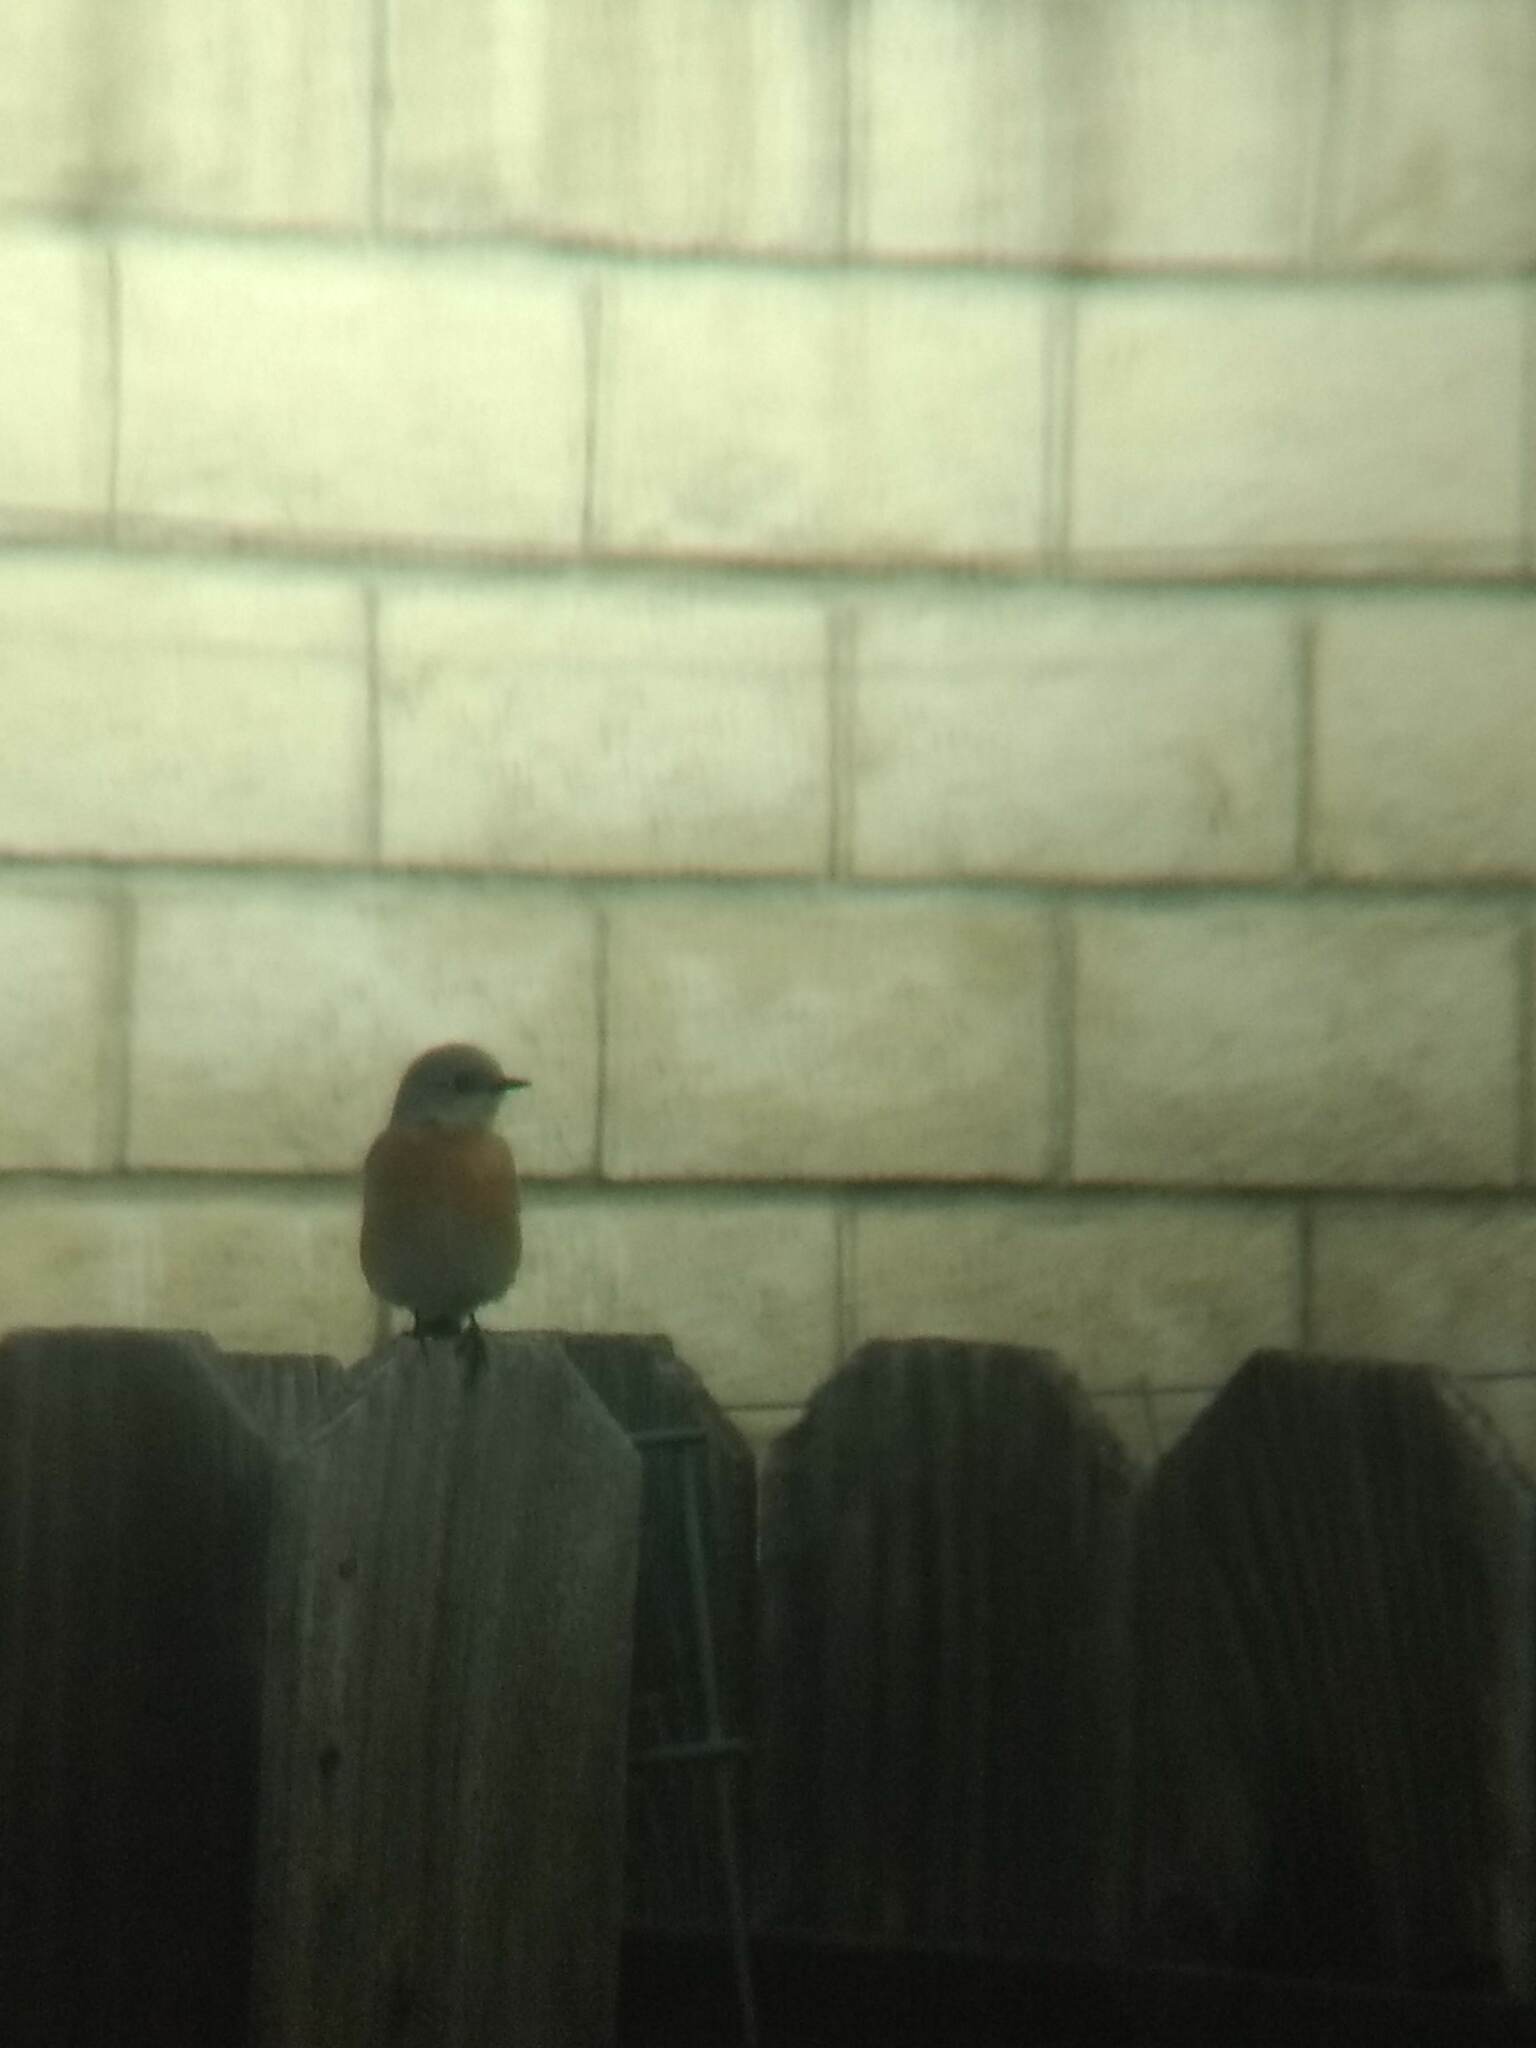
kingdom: Animalia
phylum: Chordata
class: Aves
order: Passeriformes
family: Turdidae
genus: Sialia
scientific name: Sialia mexicana
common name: Western bluebird
